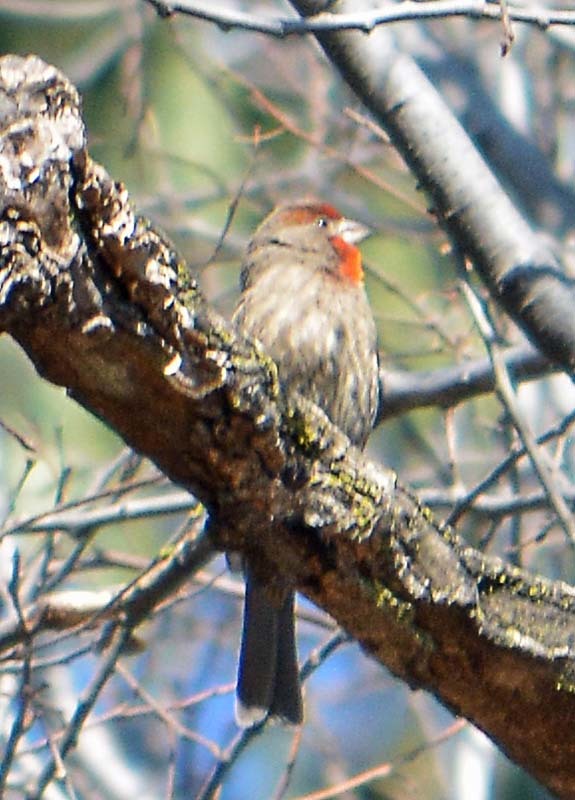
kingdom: Animalia
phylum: Chordata
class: Aves
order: Passeriformes
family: Fringillidae
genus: Haemorhous
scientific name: Haemorhous mexicanus
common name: House finch
